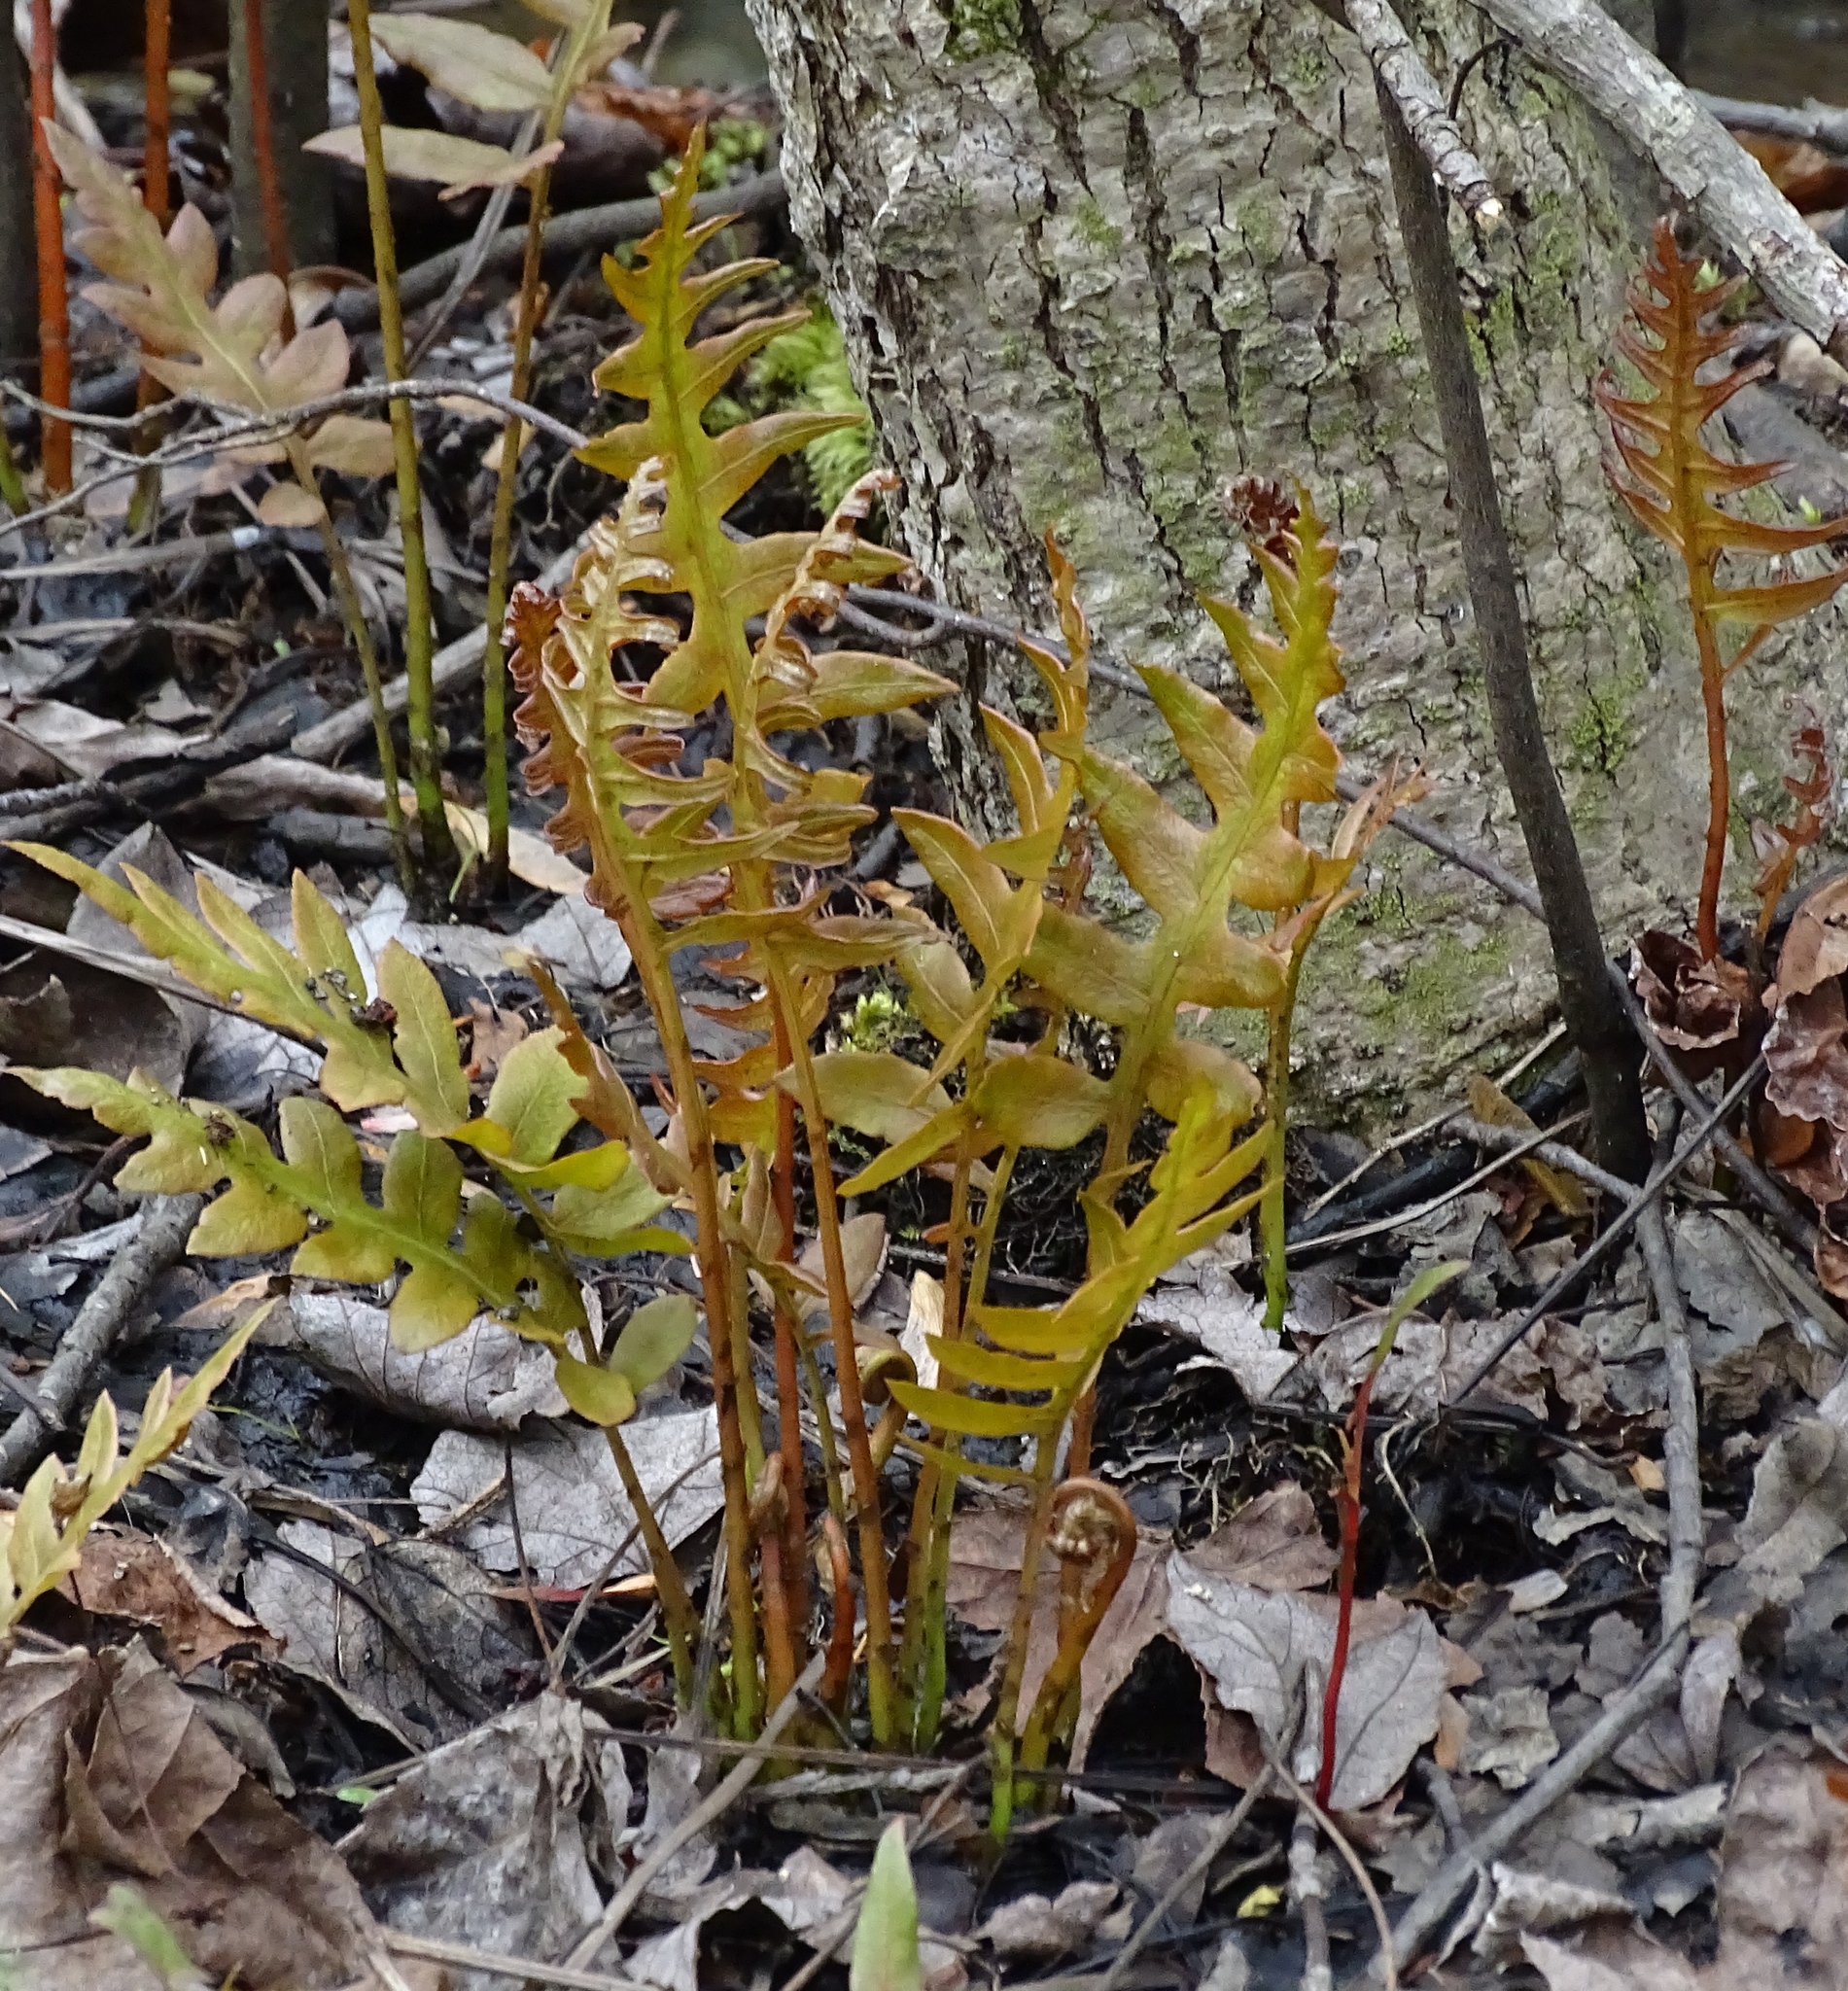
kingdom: Plantae
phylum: Tracheophyta
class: Polypodiopsida
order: Polypodiales
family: Blechnaceae
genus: Lorinseria
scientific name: Lorinseria areolata
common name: Dwarf chain fern
